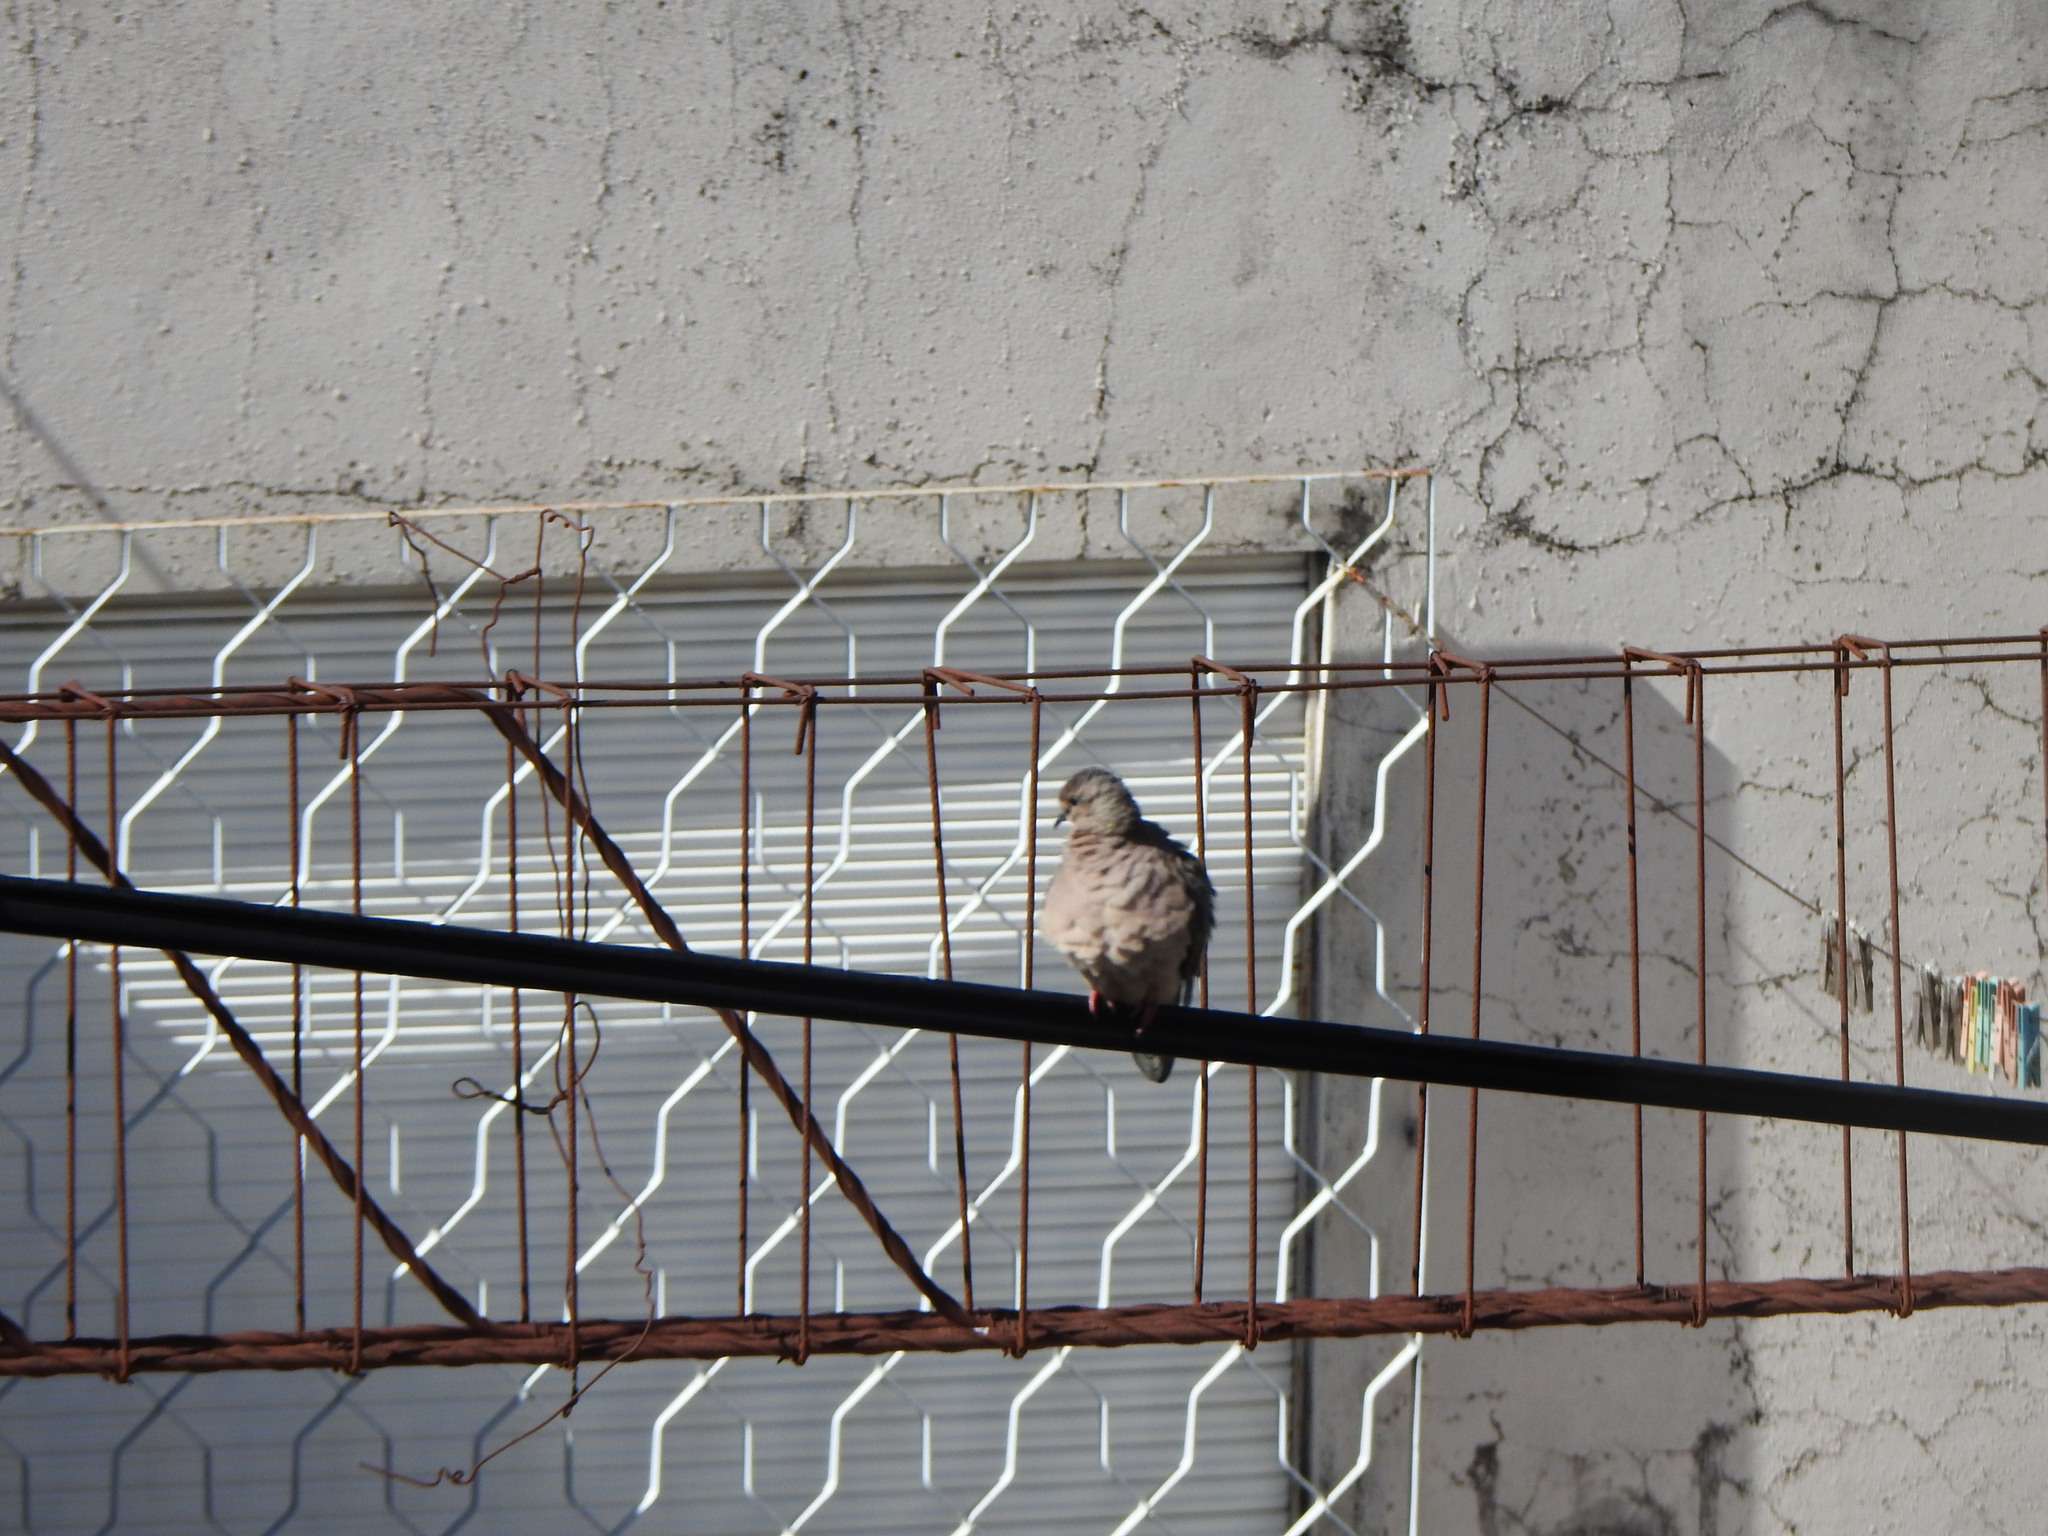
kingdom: Animalia
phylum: Chordata
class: Aves
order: Columbiformes
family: Columbidae
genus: Zenaida
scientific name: Zenaida auriculata
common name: Eared dove
